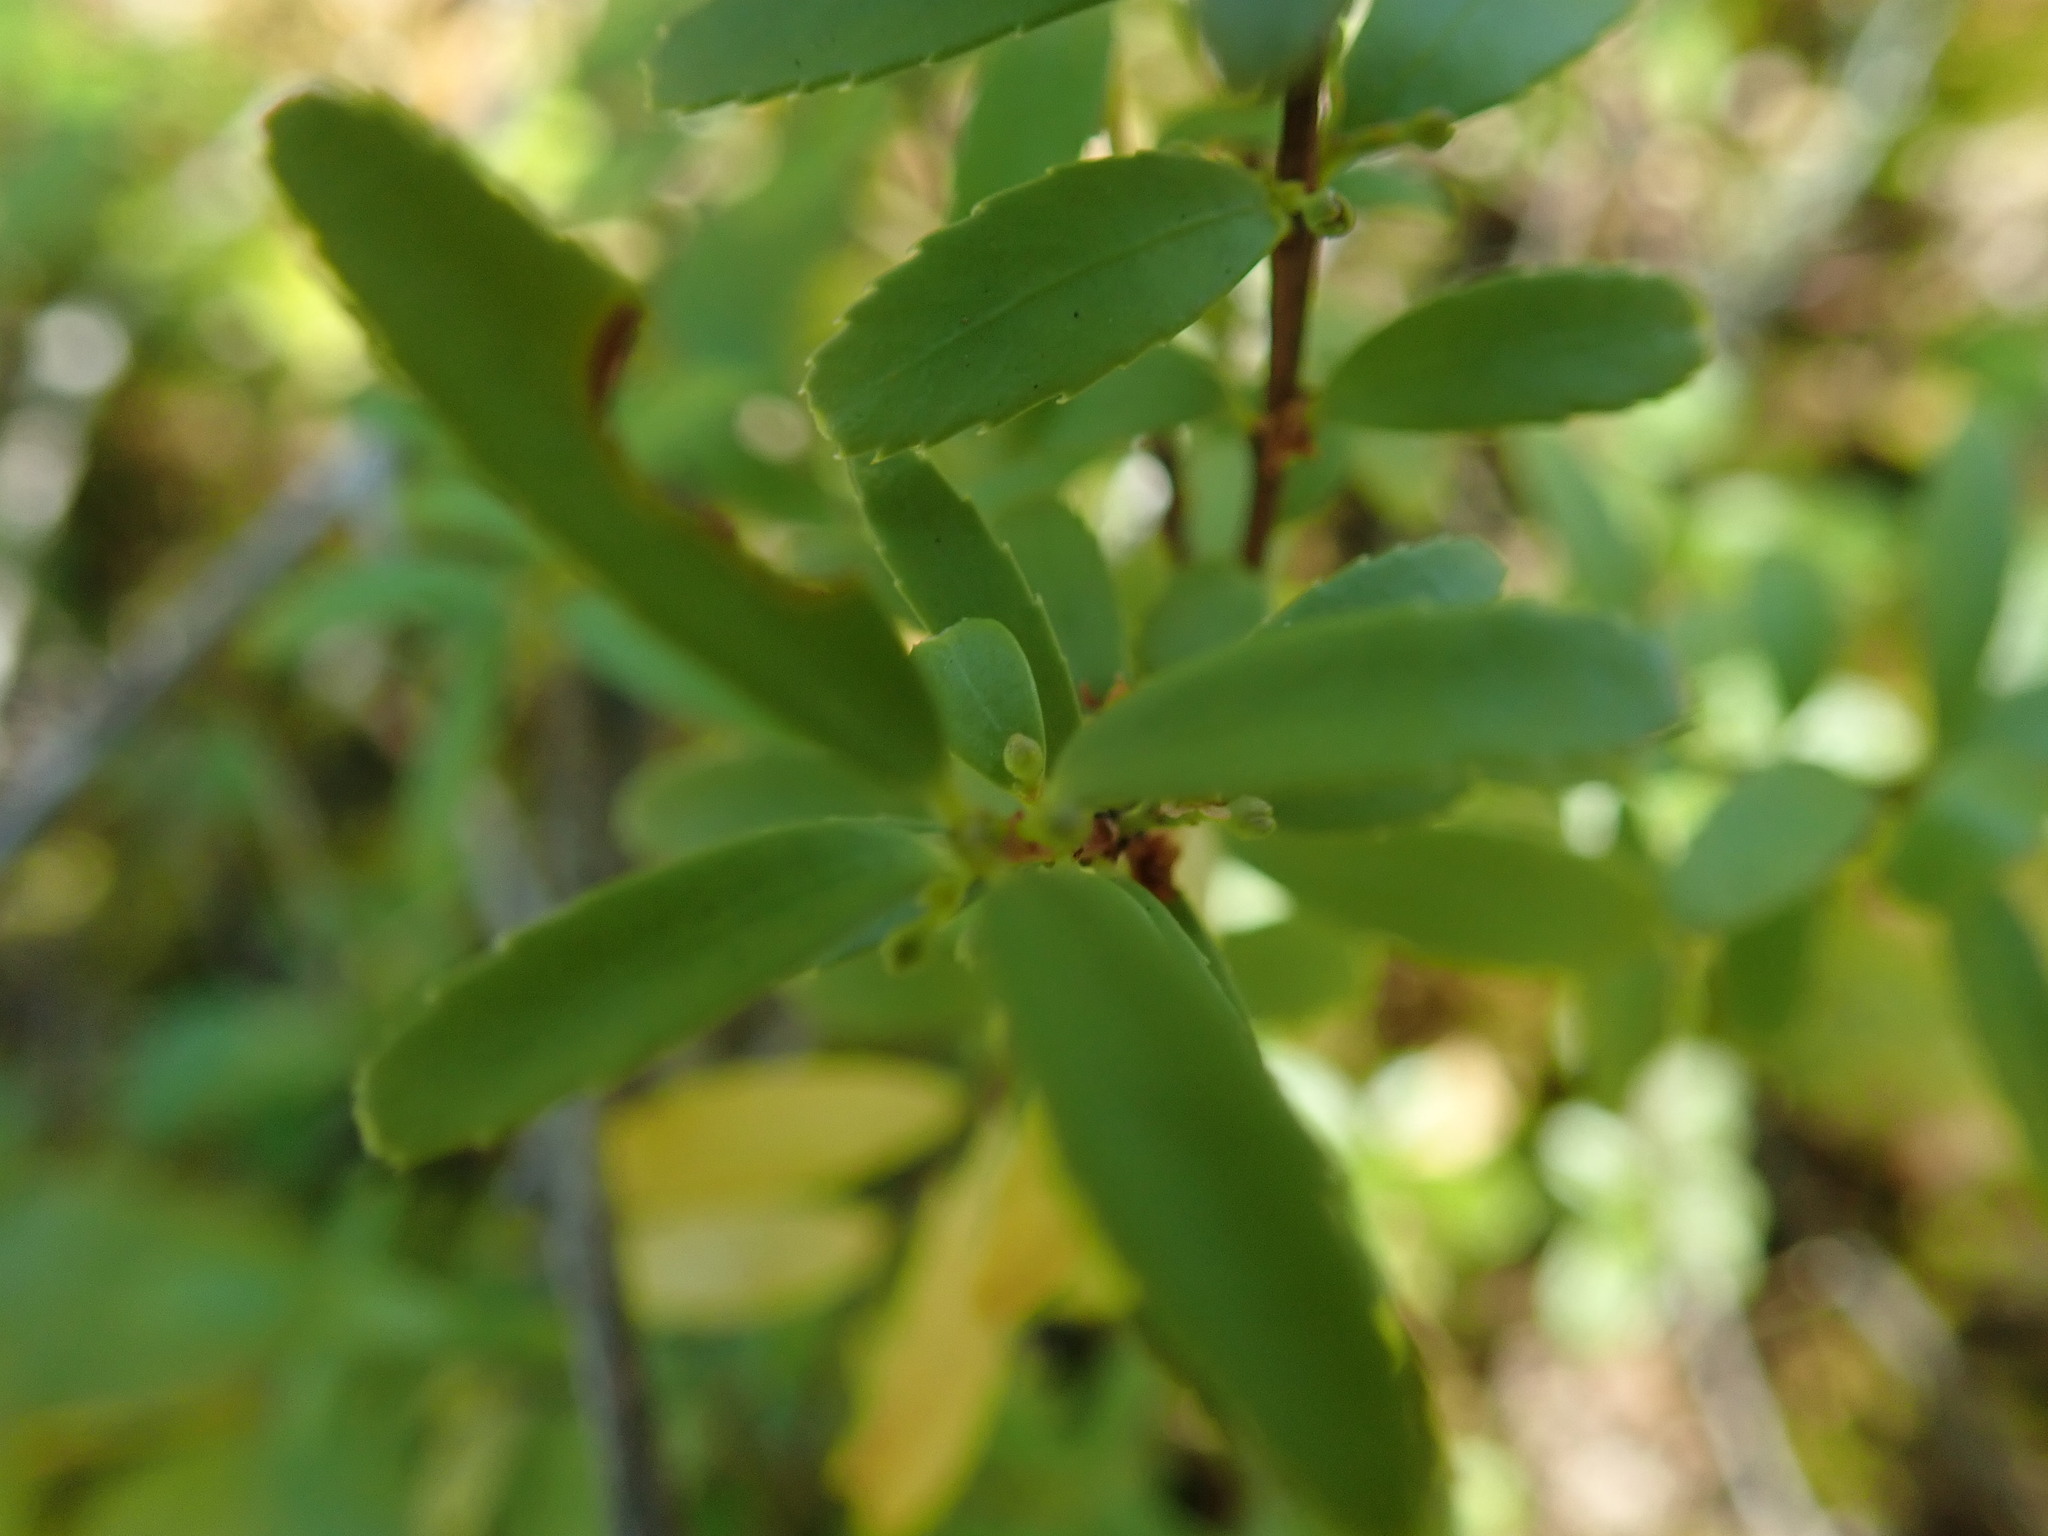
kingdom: Plantae
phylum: Tracheophyta
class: Magnoliopsida
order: Celastrales
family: Celastraceae
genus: Paxistima
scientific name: Paxistima myrsinites
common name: Mountain-lover
